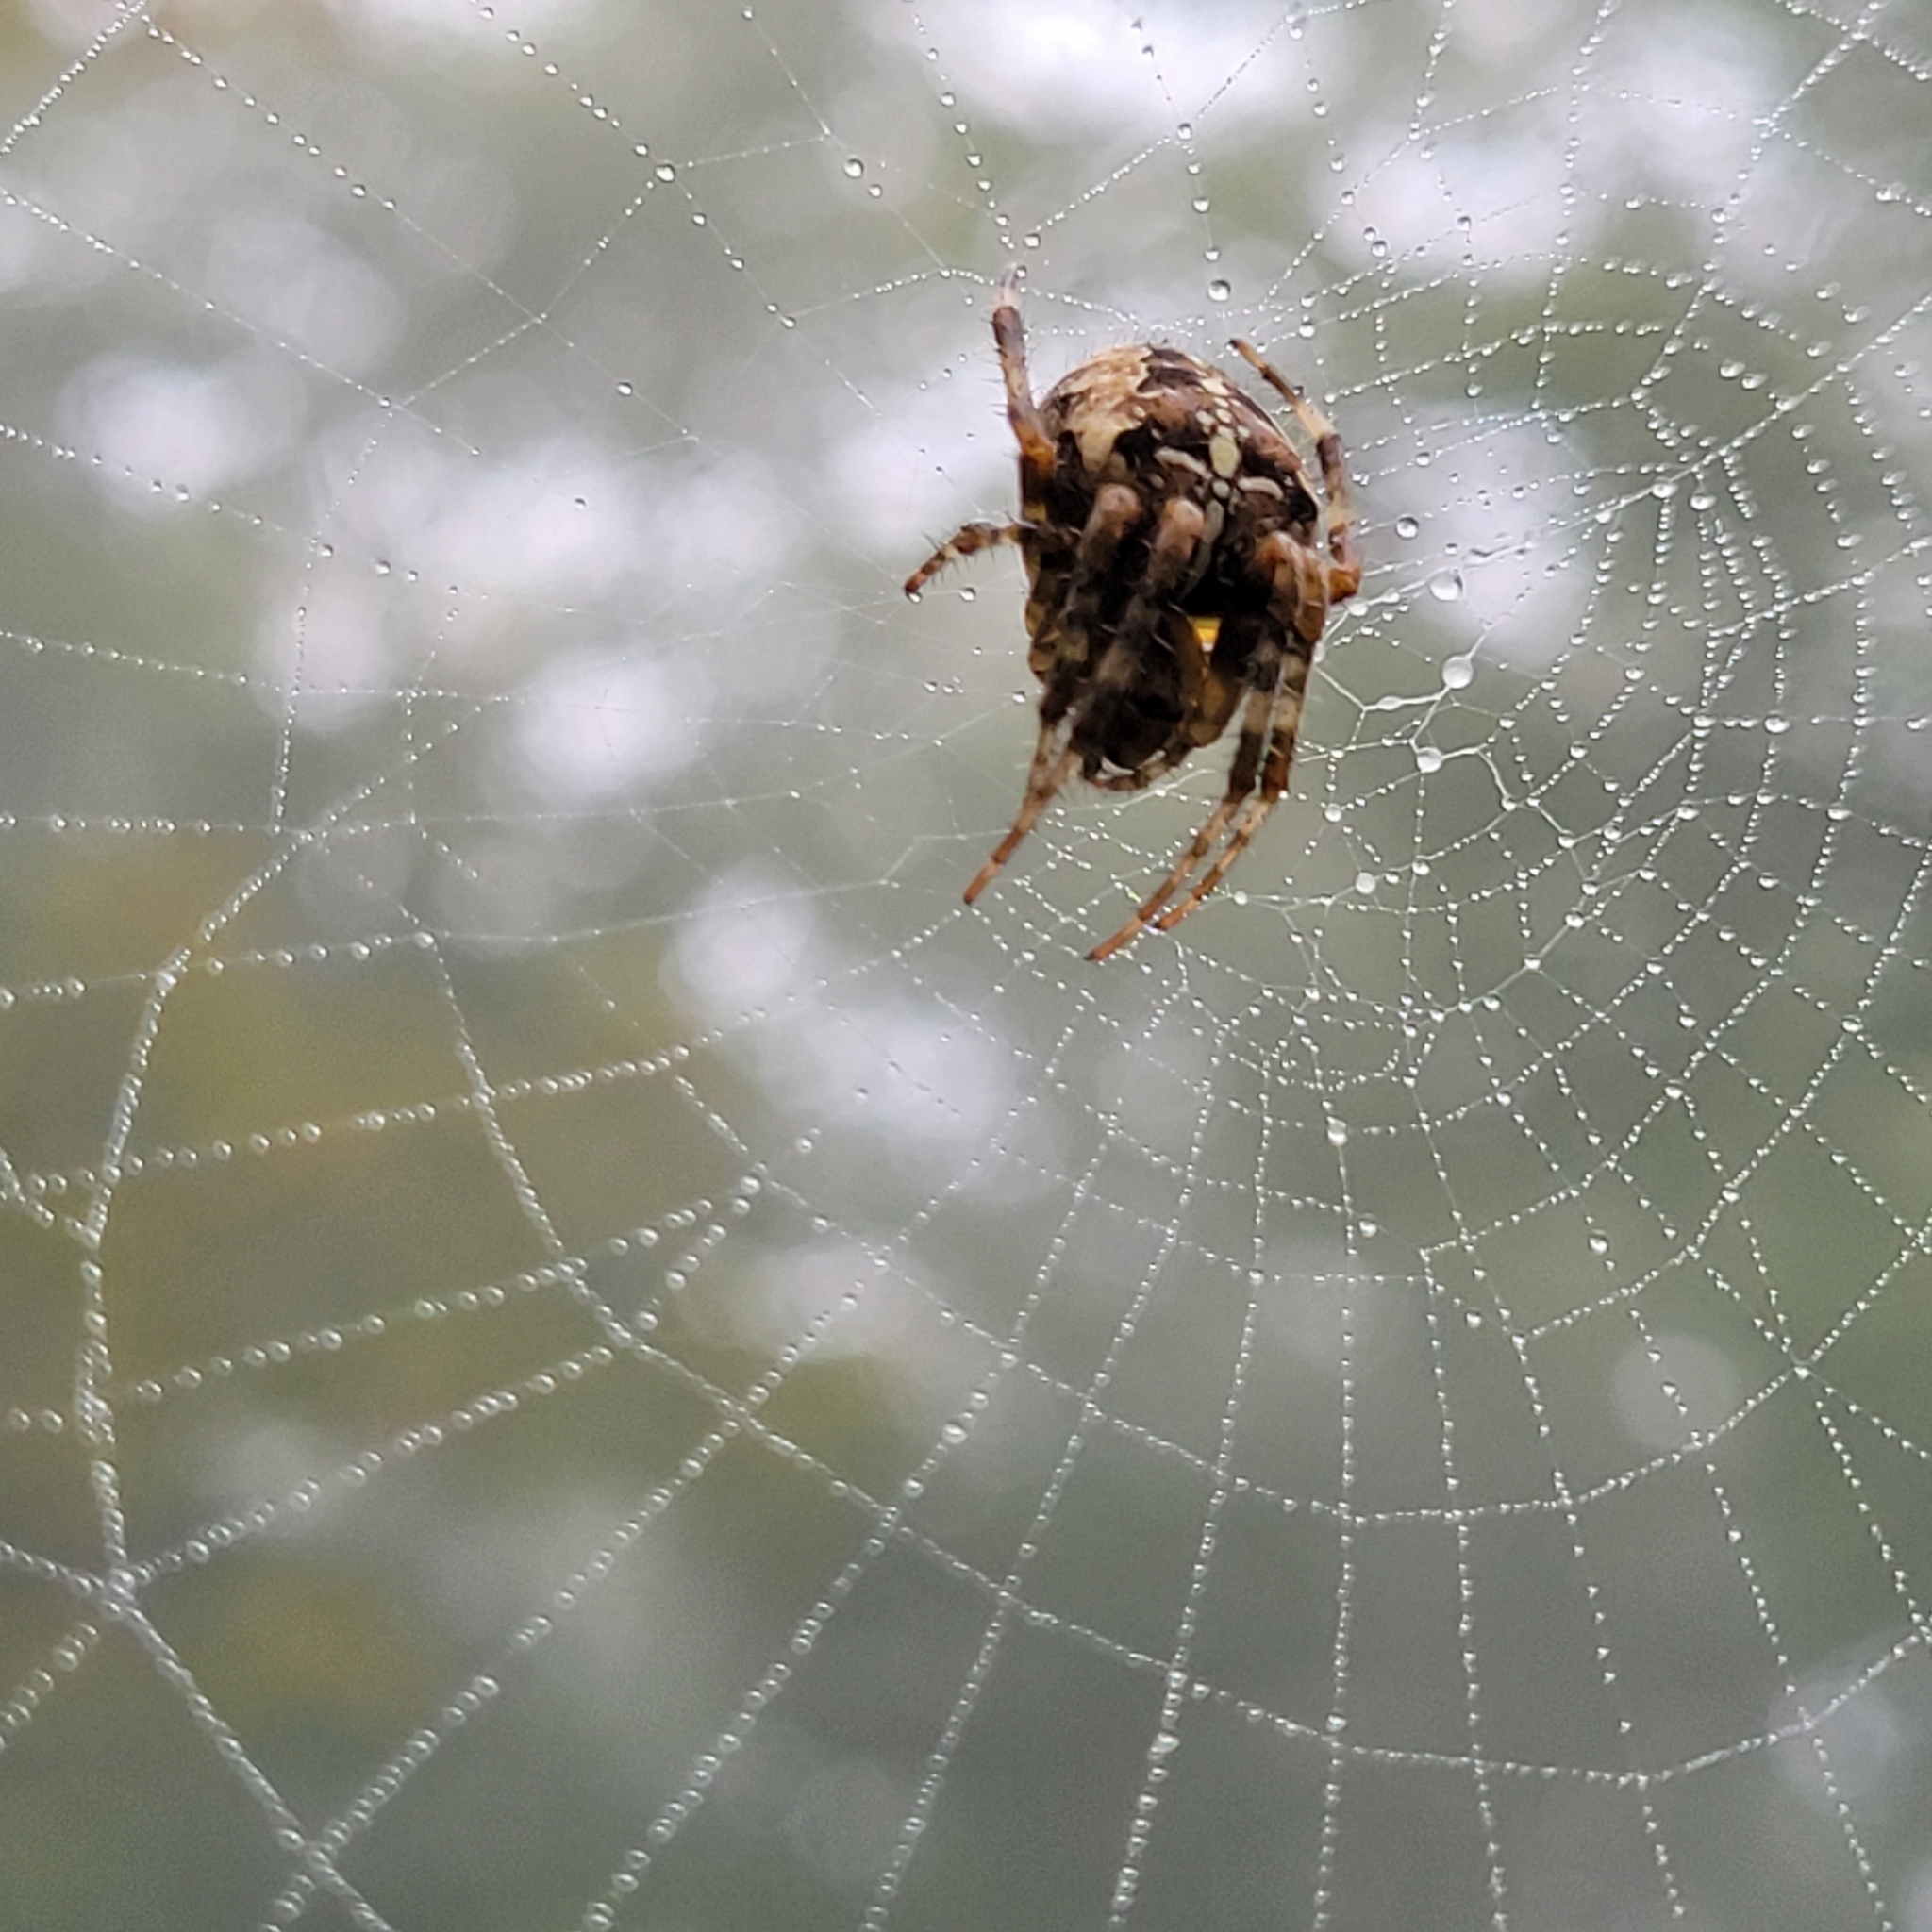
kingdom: Animalia
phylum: Arthropoda
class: Arachnida
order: Araneae
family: Araneidae
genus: Araneus
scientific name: Araneus diadematus
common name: Cross orbweaver
